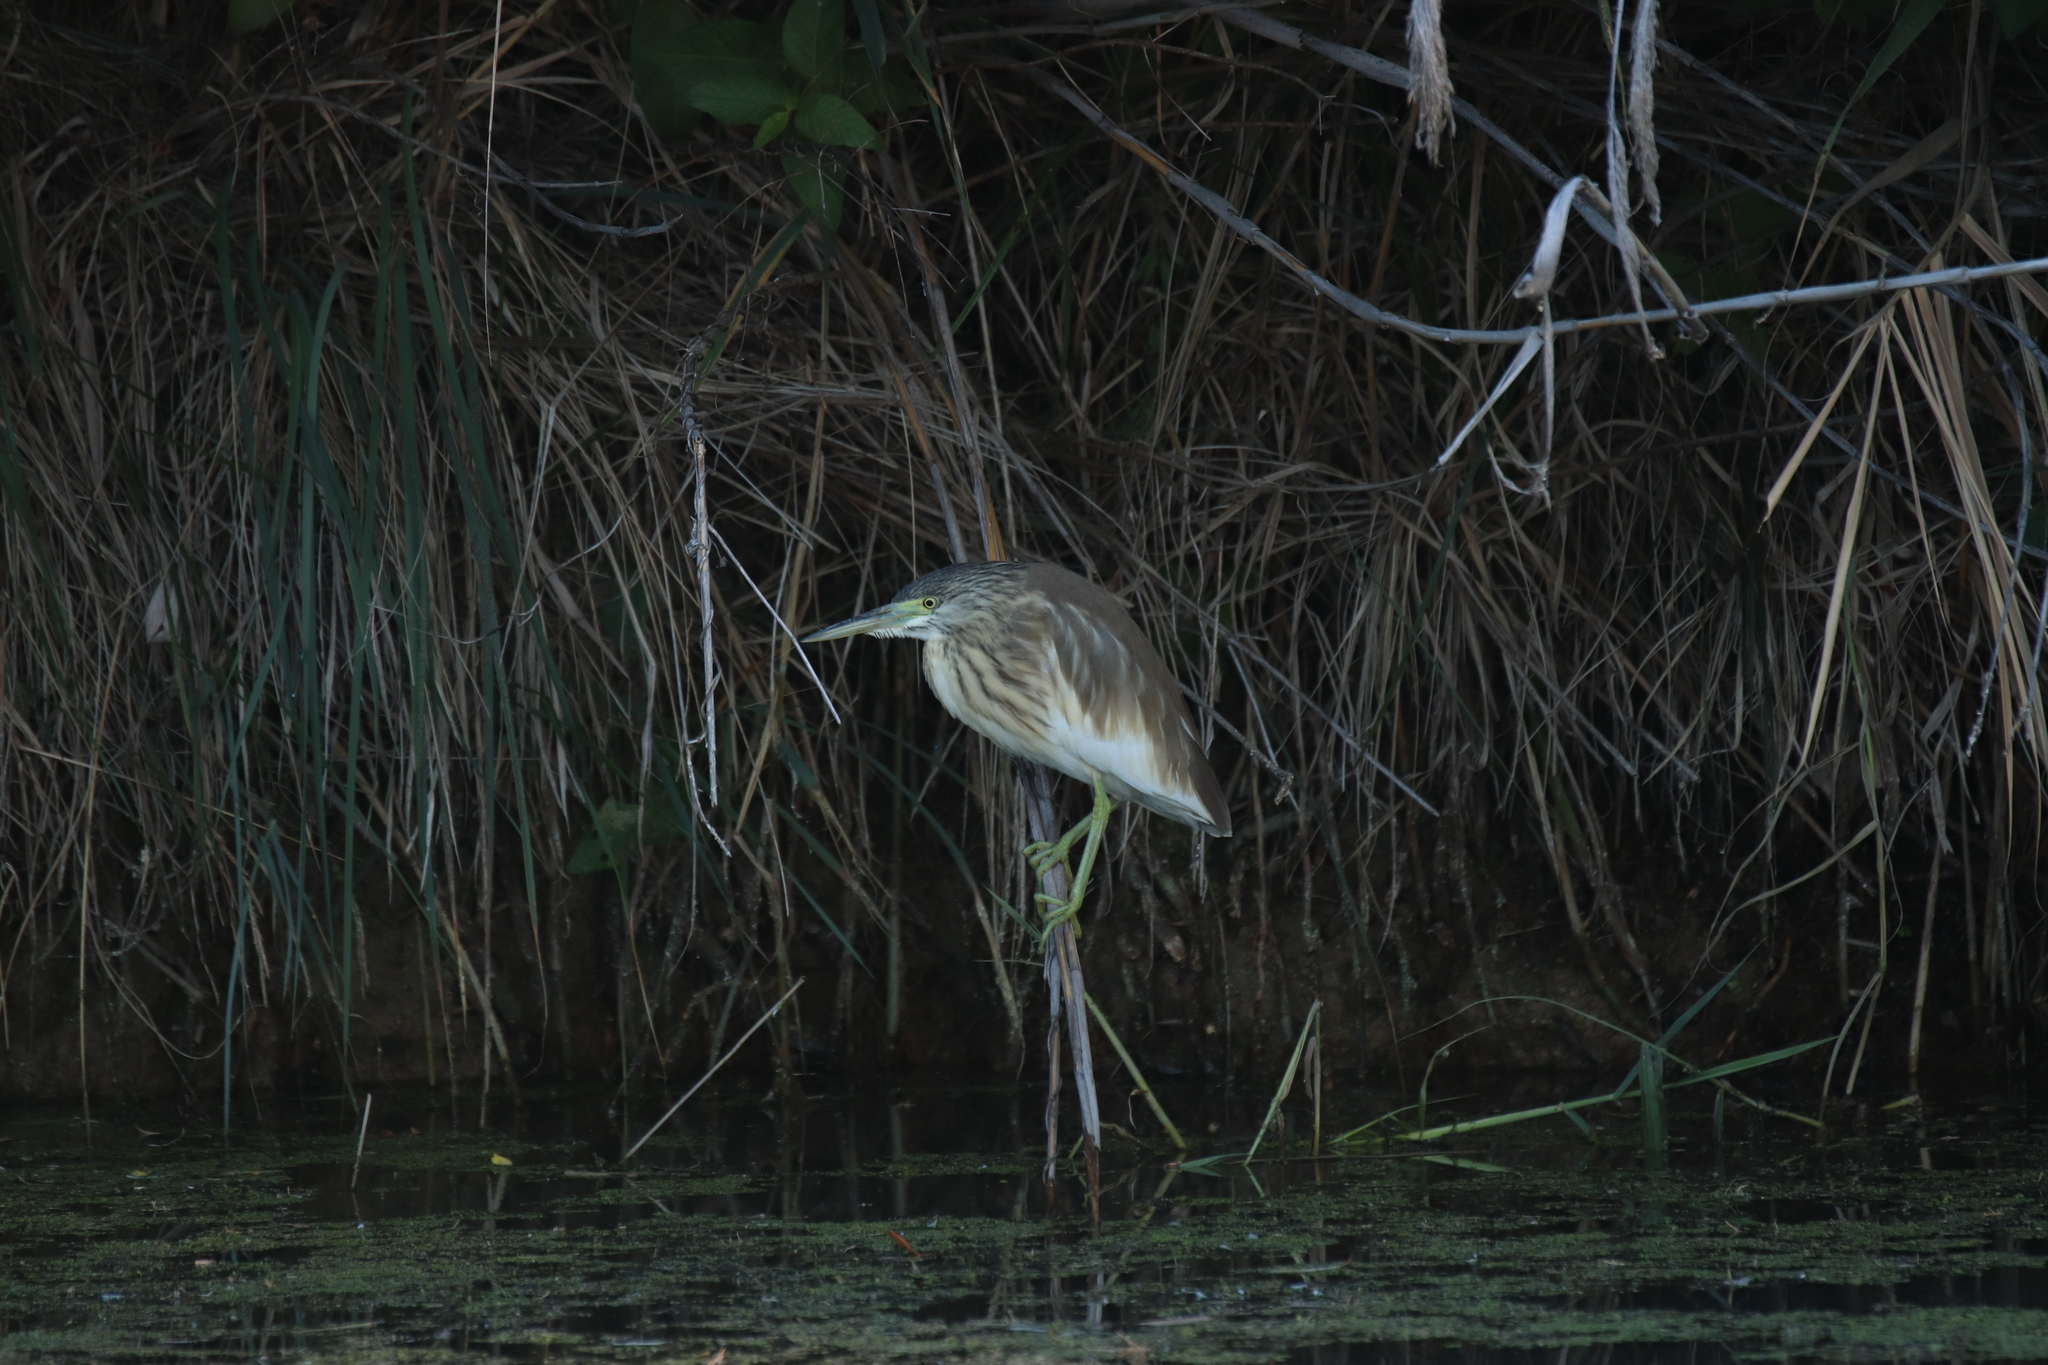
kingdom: Animalia
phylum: Chordata
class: Aves
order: Pelecaniformes
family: Ardeidae
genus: Ardeola
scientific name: Ardeola ralloides
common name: Squacco heron
